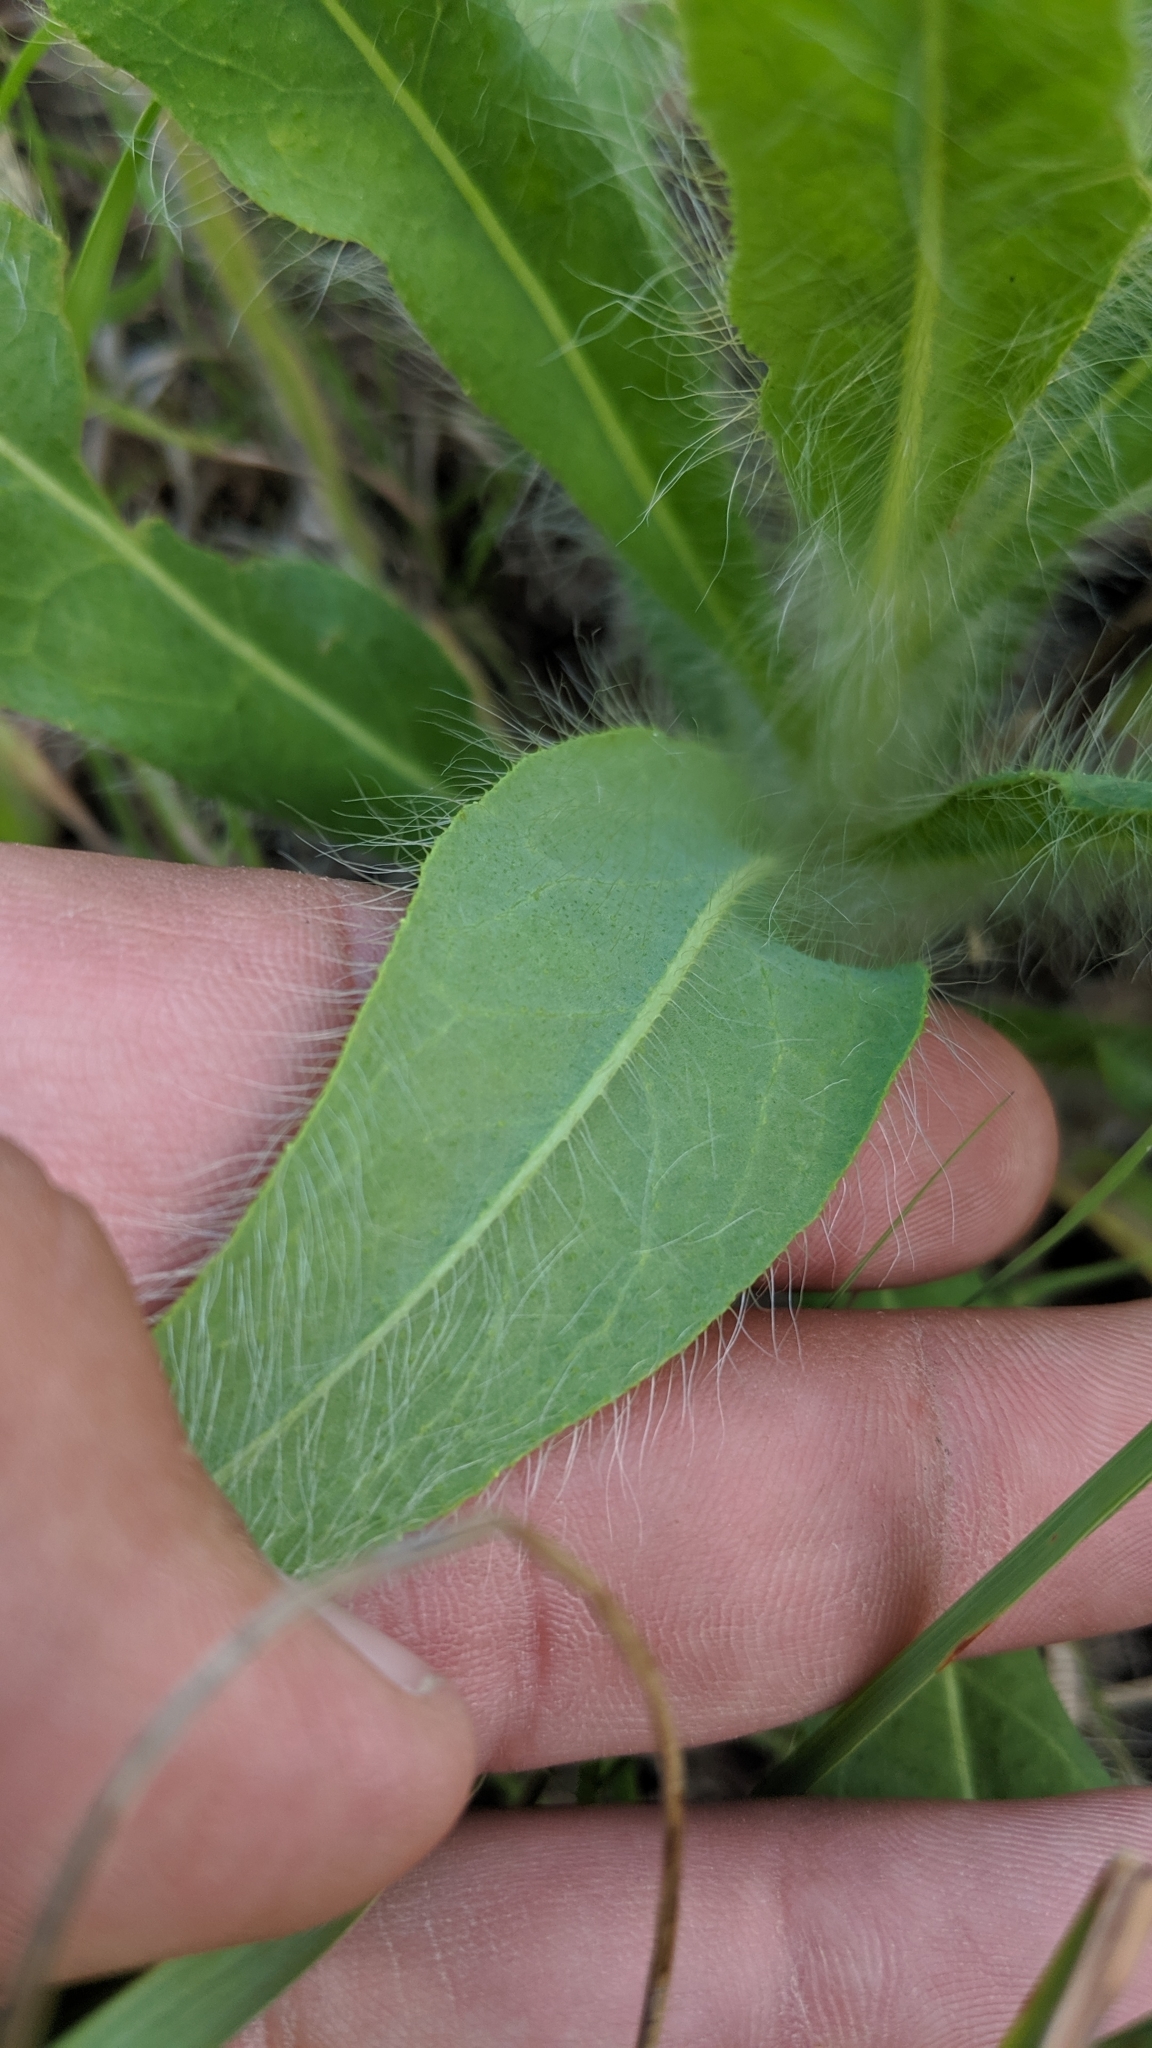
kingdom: Plantae
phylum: Tracheophyta
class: Magnoliopsida
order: Asterales
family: Asteraceae
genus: Hieracium
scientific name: Hieracium longipilum
